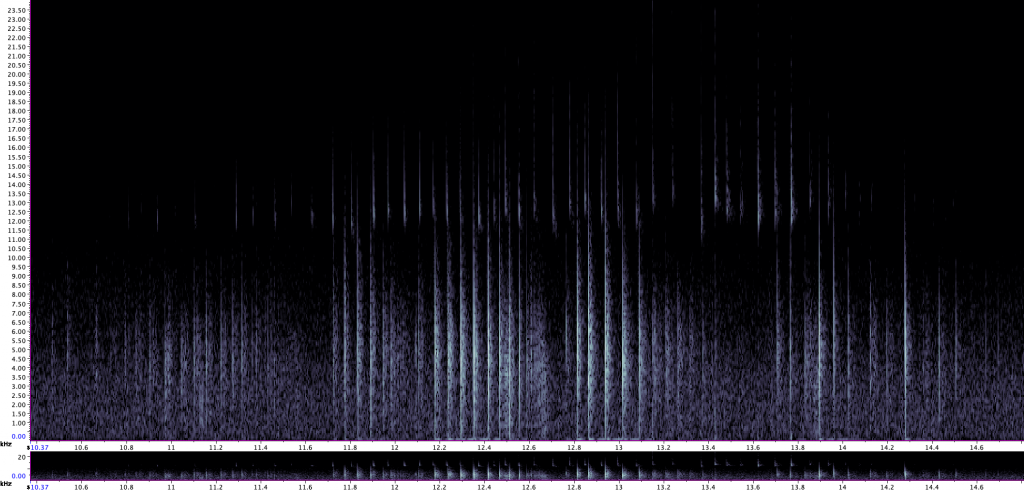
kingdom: Animalia
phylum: Chordata
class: Mammalia
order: Chiroptera
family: Vespertilionidae
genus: Myotis
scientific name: Myotis daubentonii
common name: Daubenton's myotis
